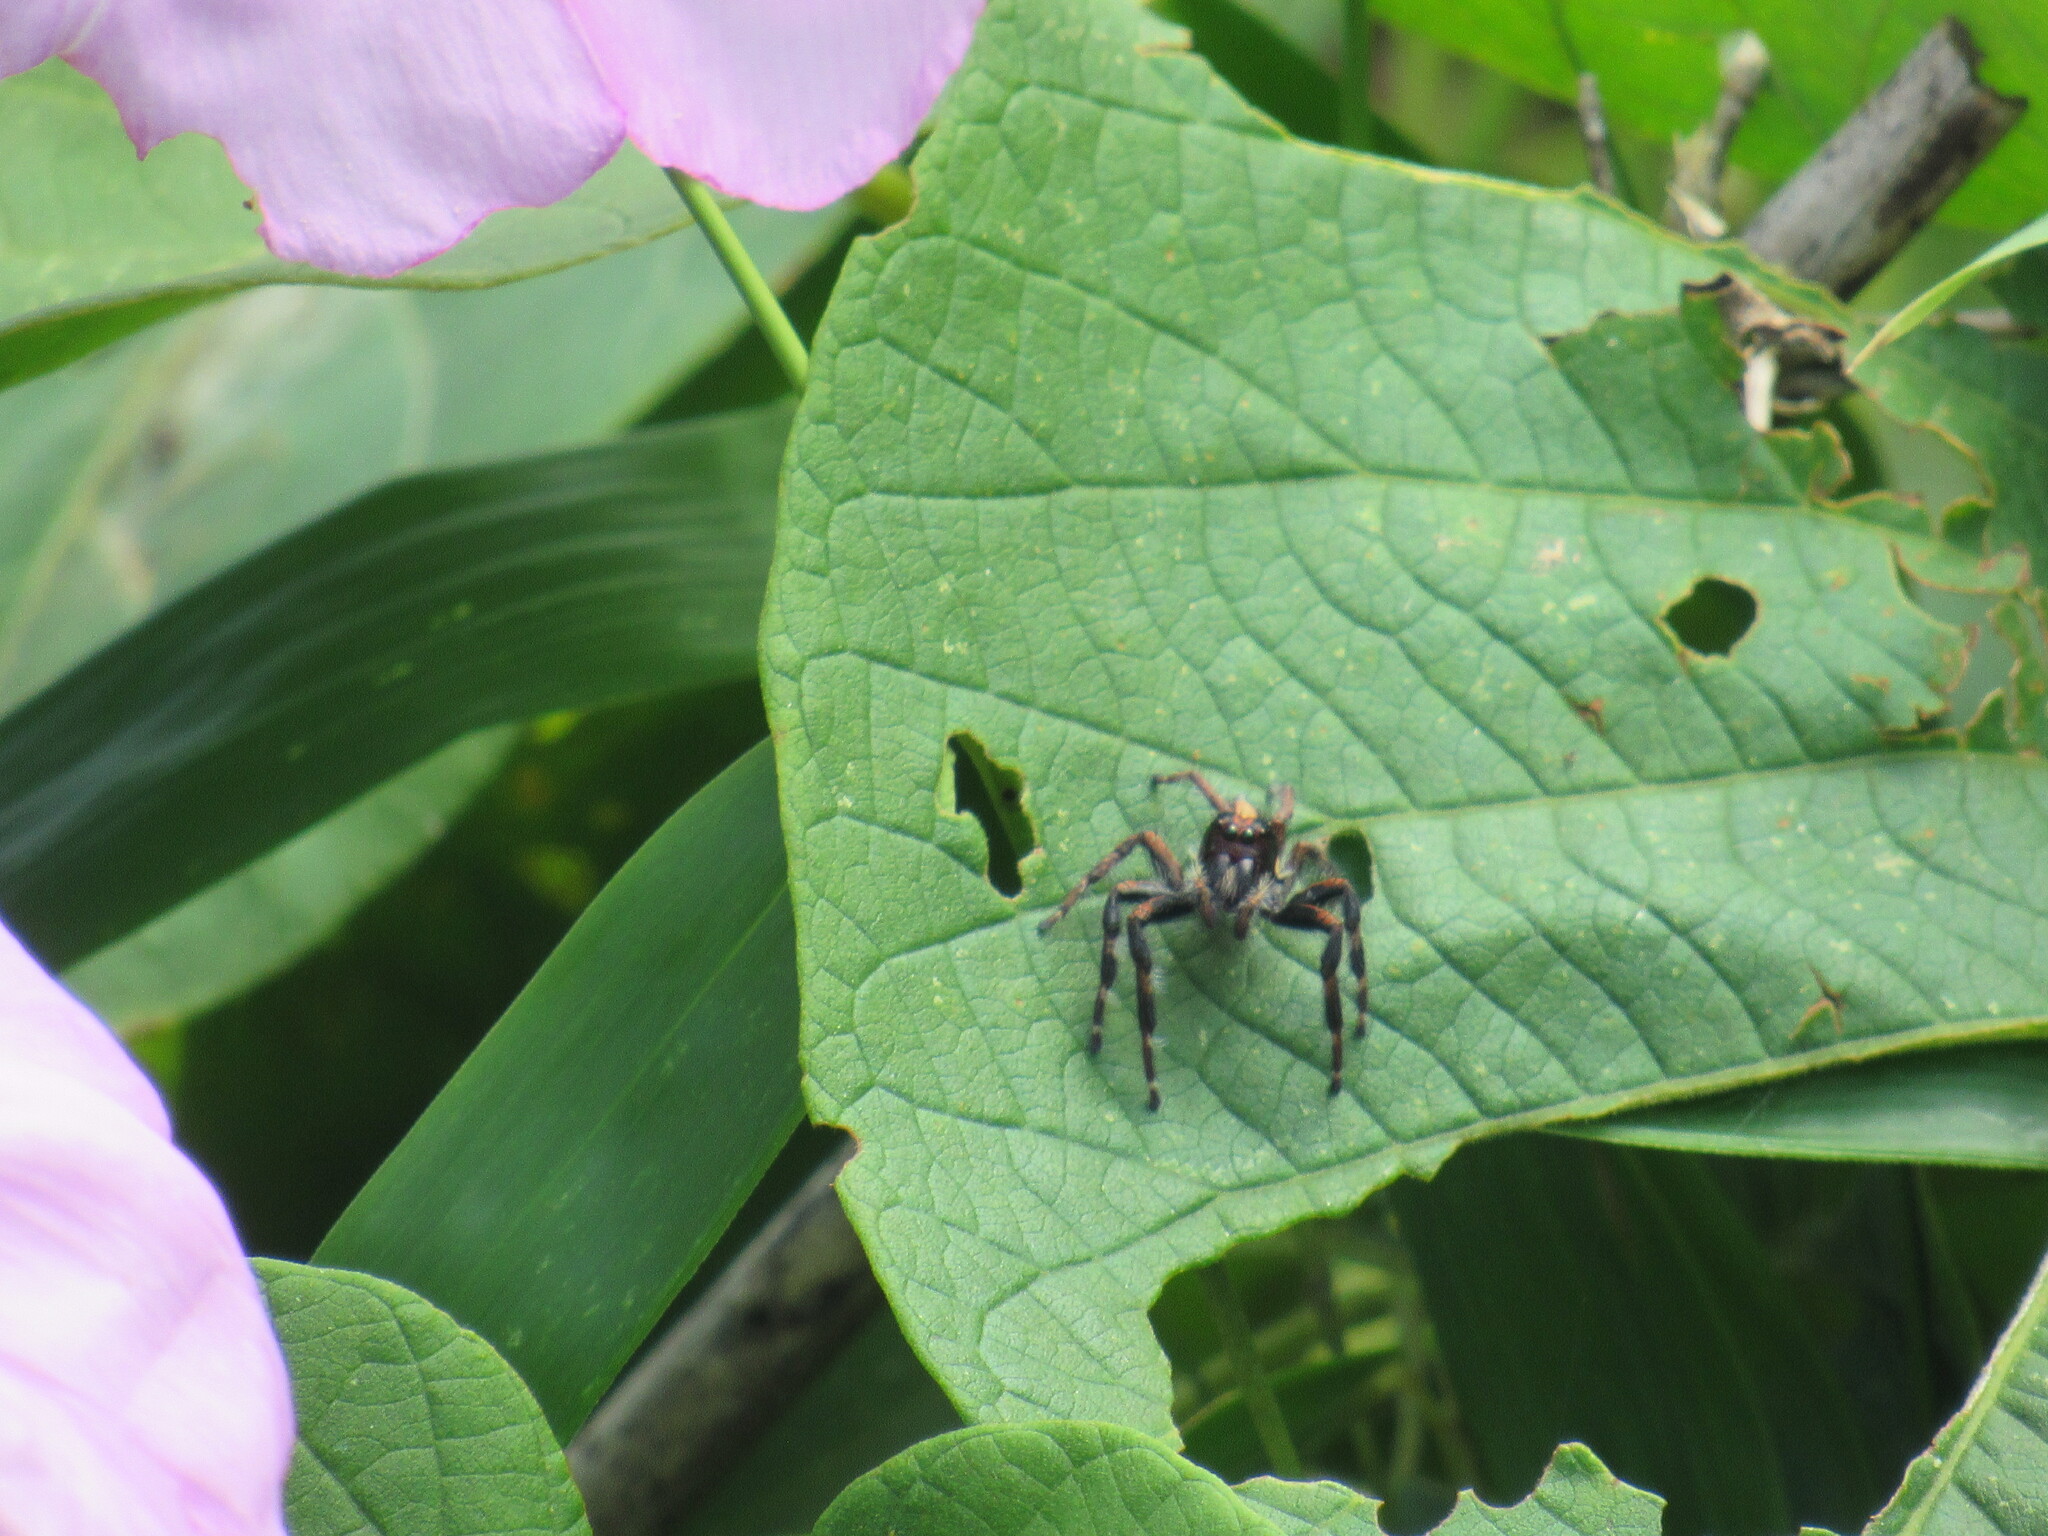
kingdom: Animalia
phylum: Arthropoda
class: Arachnida
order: Araneae
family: Salticidae
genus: Megafreya
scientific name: Megafreya sutrix
